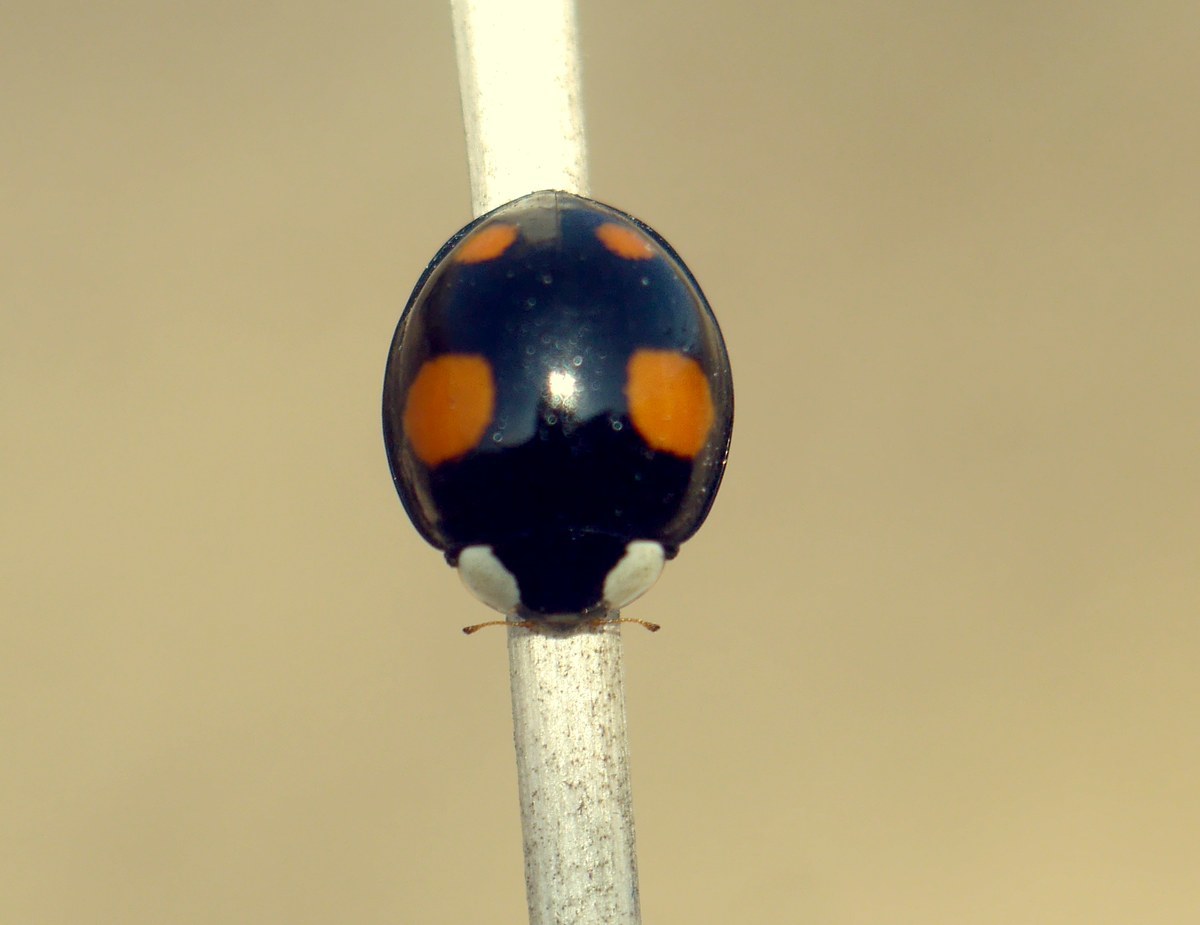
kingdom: Animalia
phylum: Arthropoda
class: Insecta
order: Coleoptera
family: Coccinellidae
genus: Harmonia
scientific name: Harmonia axyridis
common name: Harlequin ladybird
